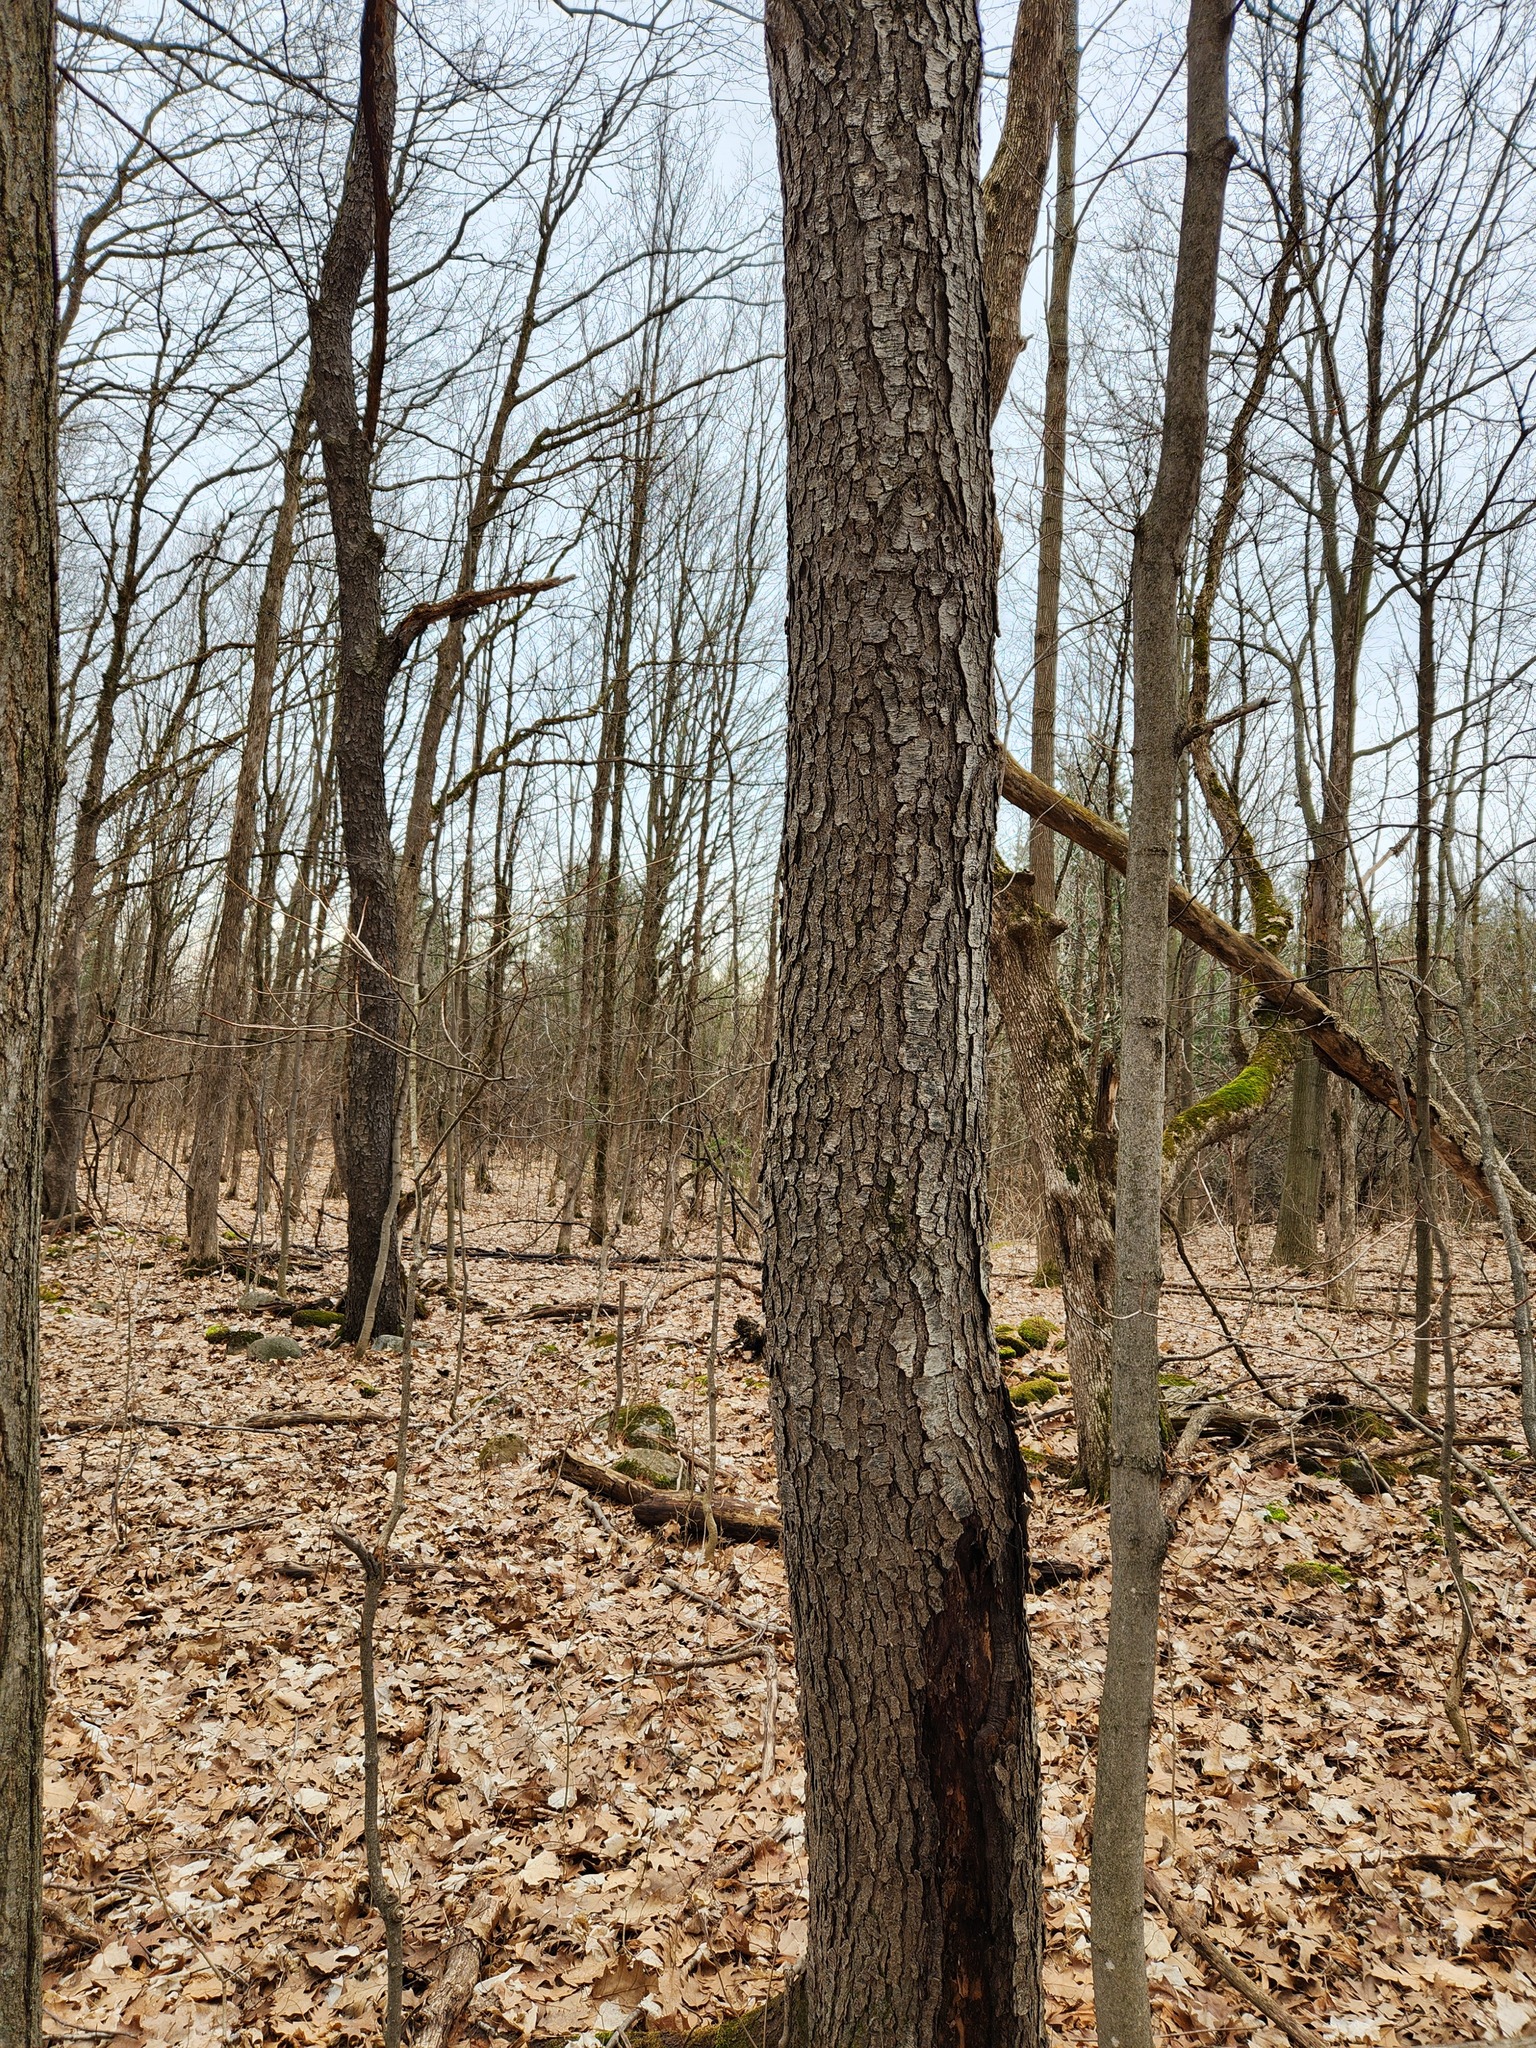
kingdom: Plantae
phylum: Tracheophyta
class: Magnoliopsida
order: Rosales
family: Rosaceae
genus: Prunus
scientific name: Prunus serotina
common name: Black cherry
